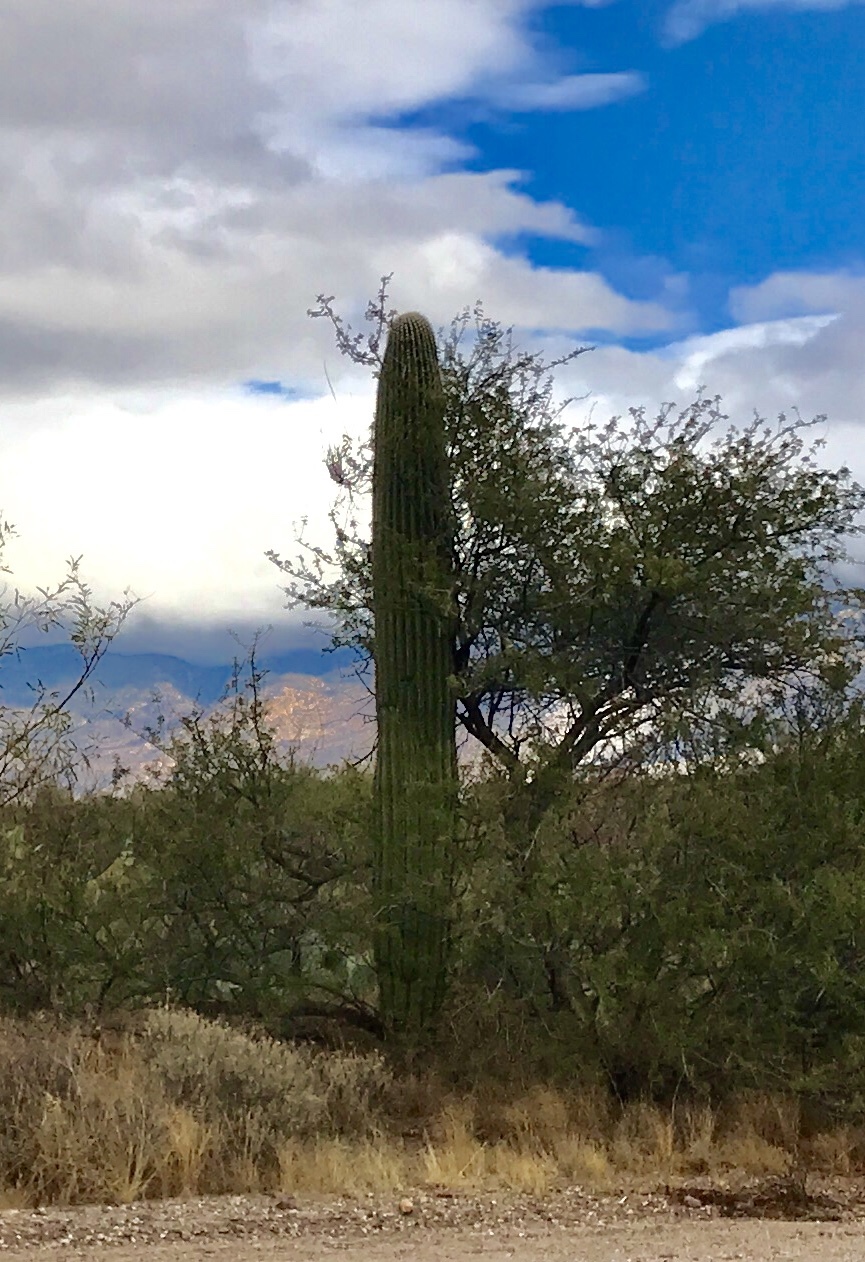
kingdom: Plantae
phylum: Tracheophyta
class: Magnoliopsida
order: Caryophyllales
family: Cactaceae
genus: Carnegiea
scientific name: Carnegiea gigantea
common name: Saguaro
